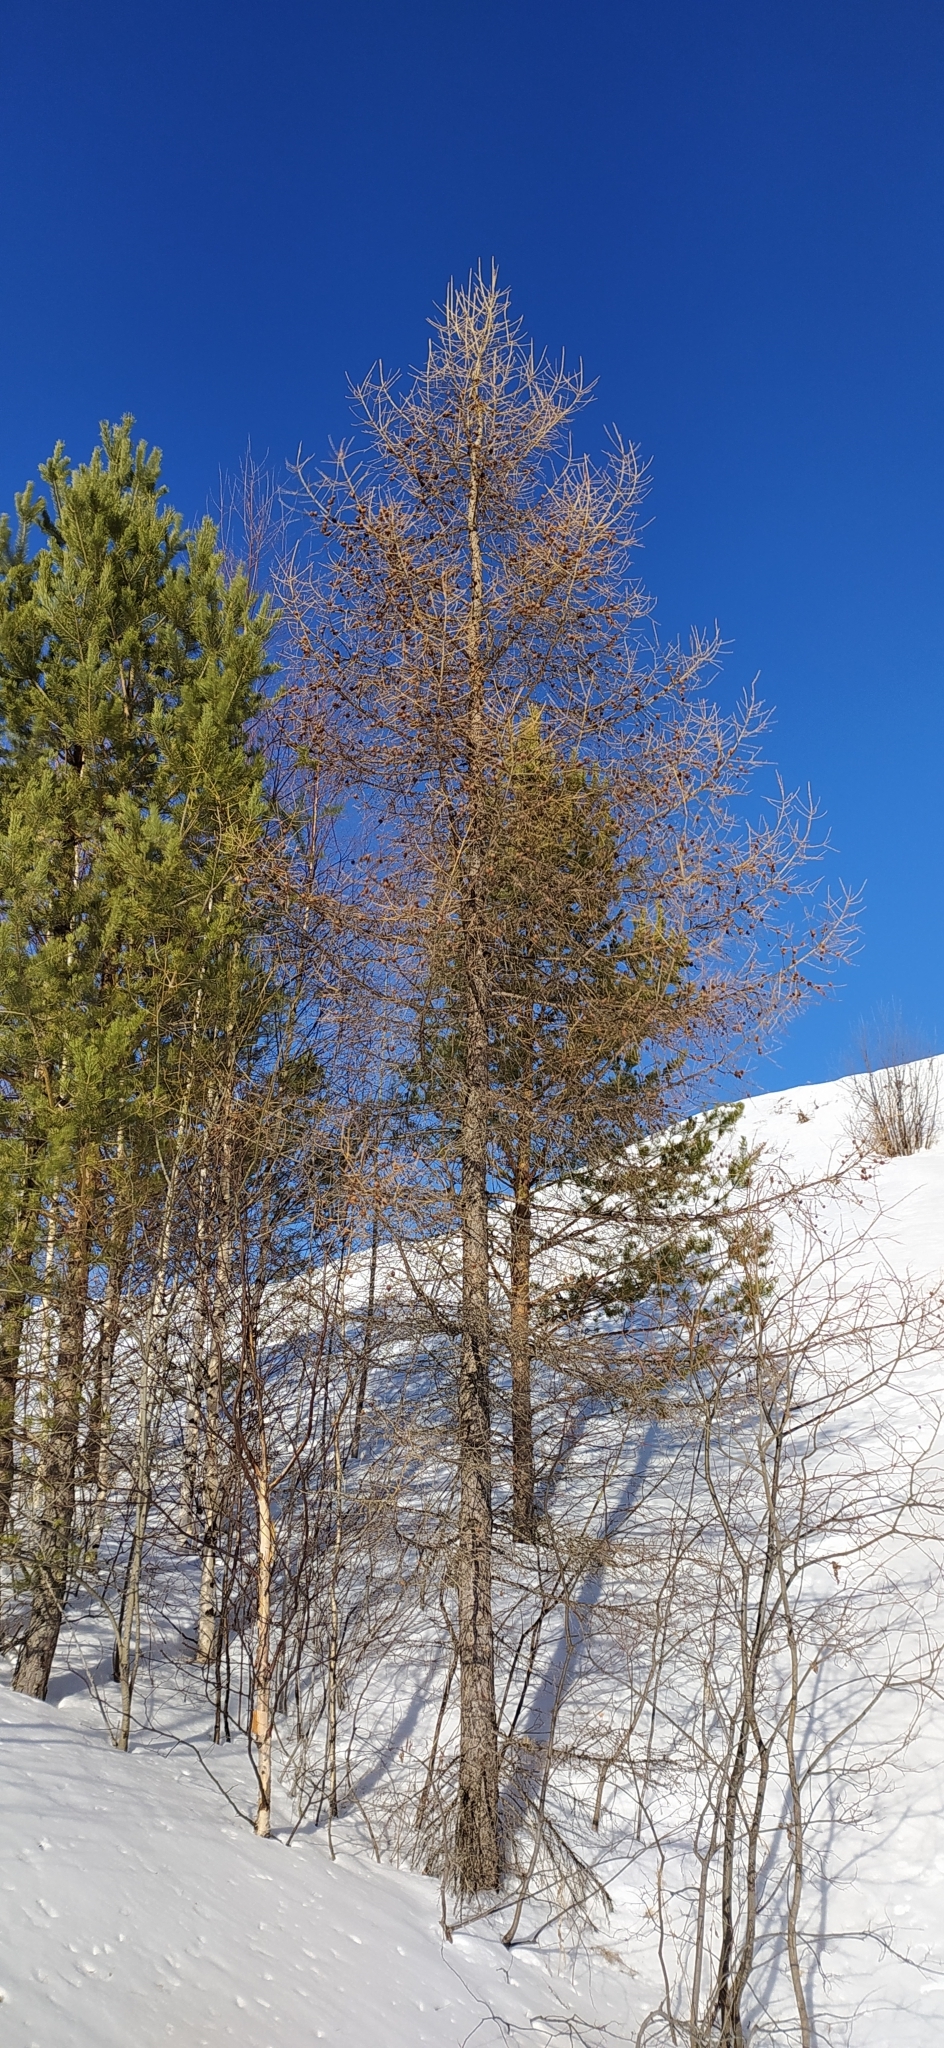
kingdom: Plantae
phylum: Tracheophyta
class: Pinopsida
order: Pinales
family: Pinaceae
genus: Larix
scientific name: Larix sibirica
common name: Siberian larch
